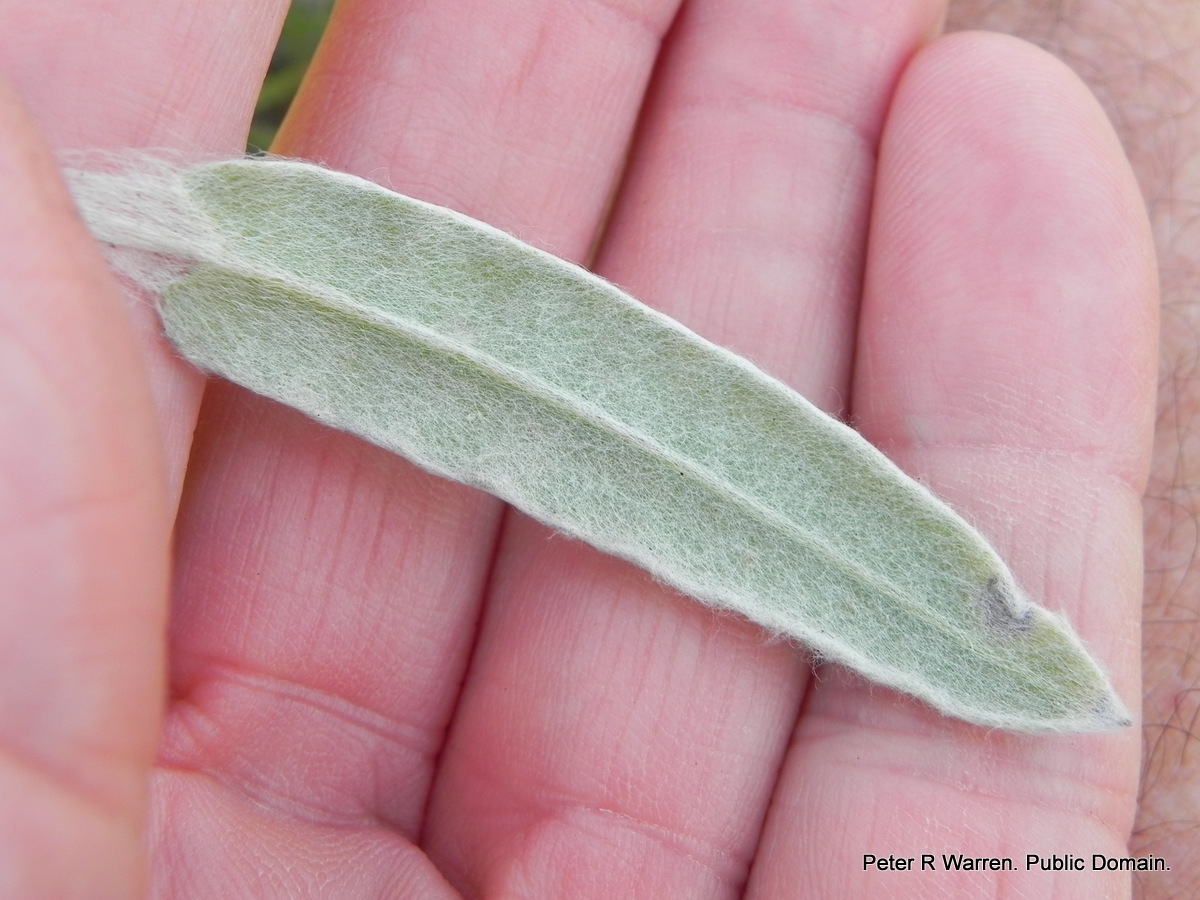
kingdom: Plantae
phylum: Tracheophyta
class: Magnoliopsida
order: Asterales
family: Asteraceae
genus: Helichrysum
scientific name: Helichrysum appendiculatum
